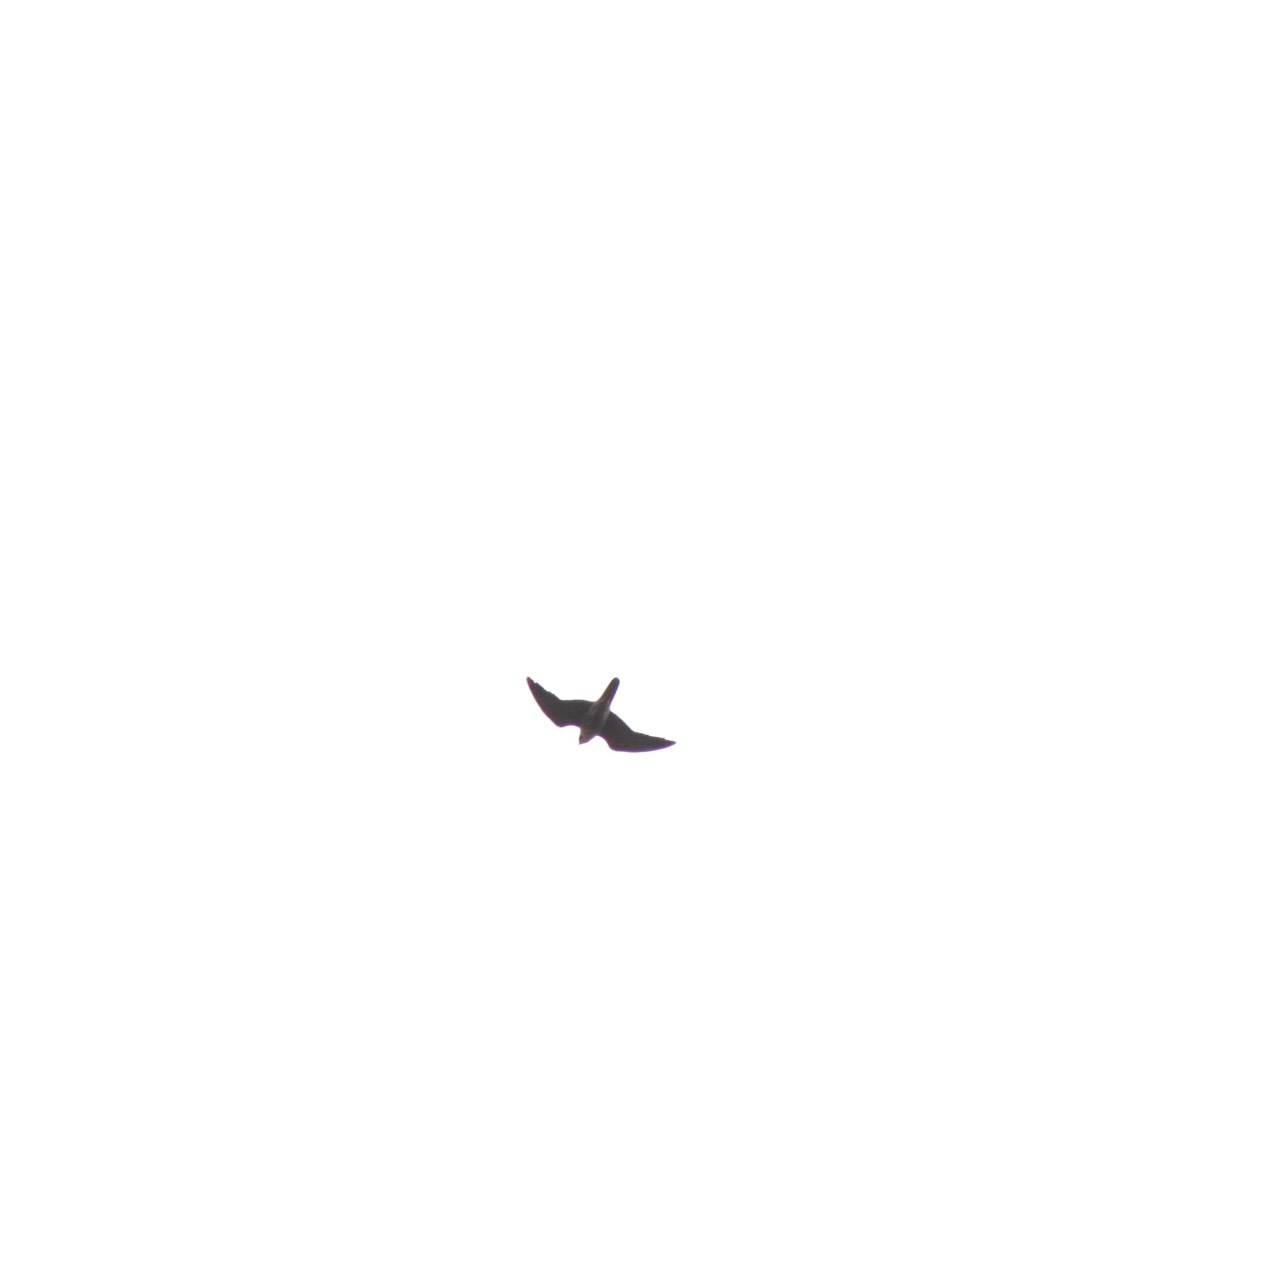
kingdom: Animalia
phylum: Chordata
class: Aves
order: Falconiformes
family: Falconidae
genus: Falco
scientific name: Falco peregrinus
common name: Peregrine falcon
